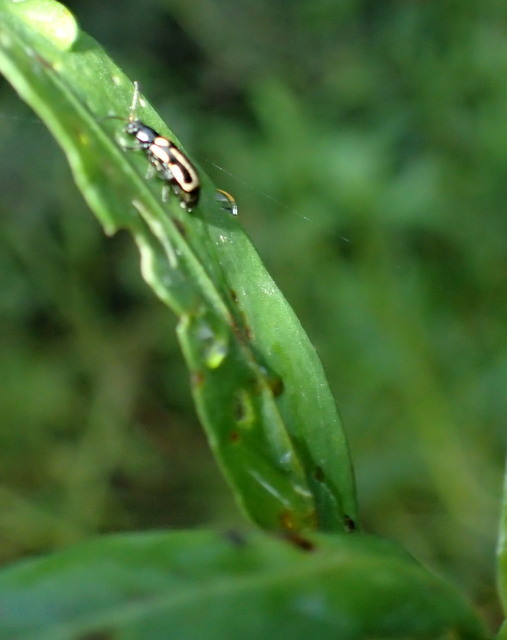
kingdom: Animalia
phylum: Arthropoda
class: Insecta
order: Coleoptera
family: Chrysomelidae
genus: Agasicles
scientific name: Agasicles hygrophila
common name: Alligatorweed flea beetle
